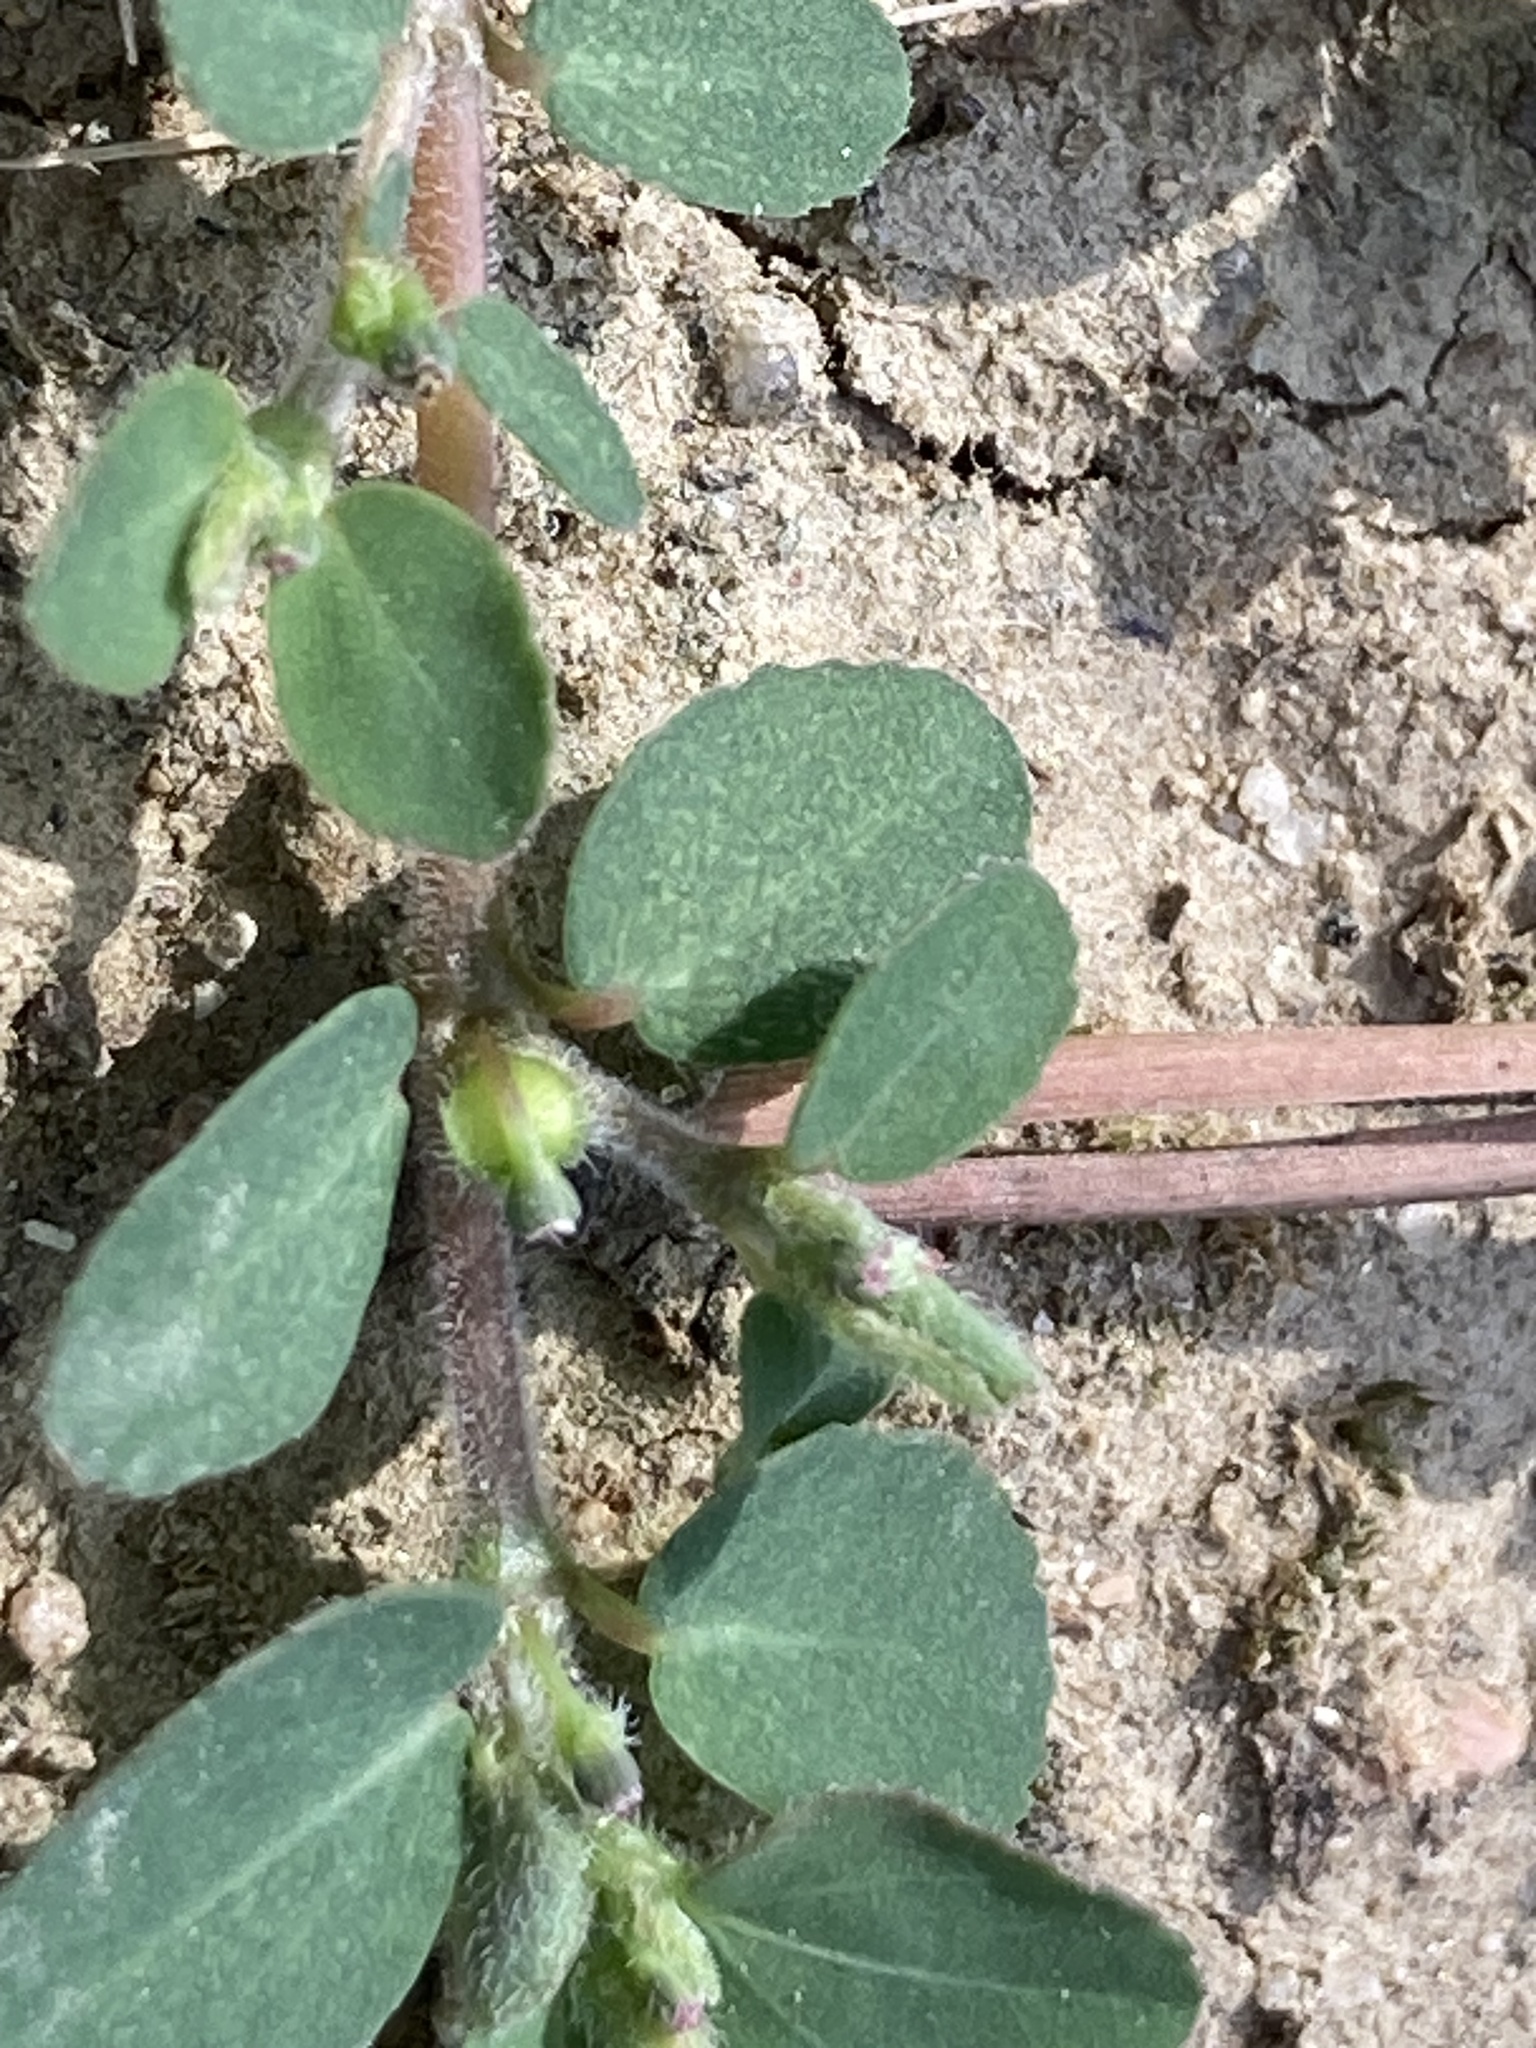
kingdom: Plantae
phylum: Tracheophyta
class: Magnoliopsida
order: Malpighiales
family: Euphorbiaceae
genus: Euphorbia
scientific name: Euphorbia prostrata
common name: Prostrate sandmat
